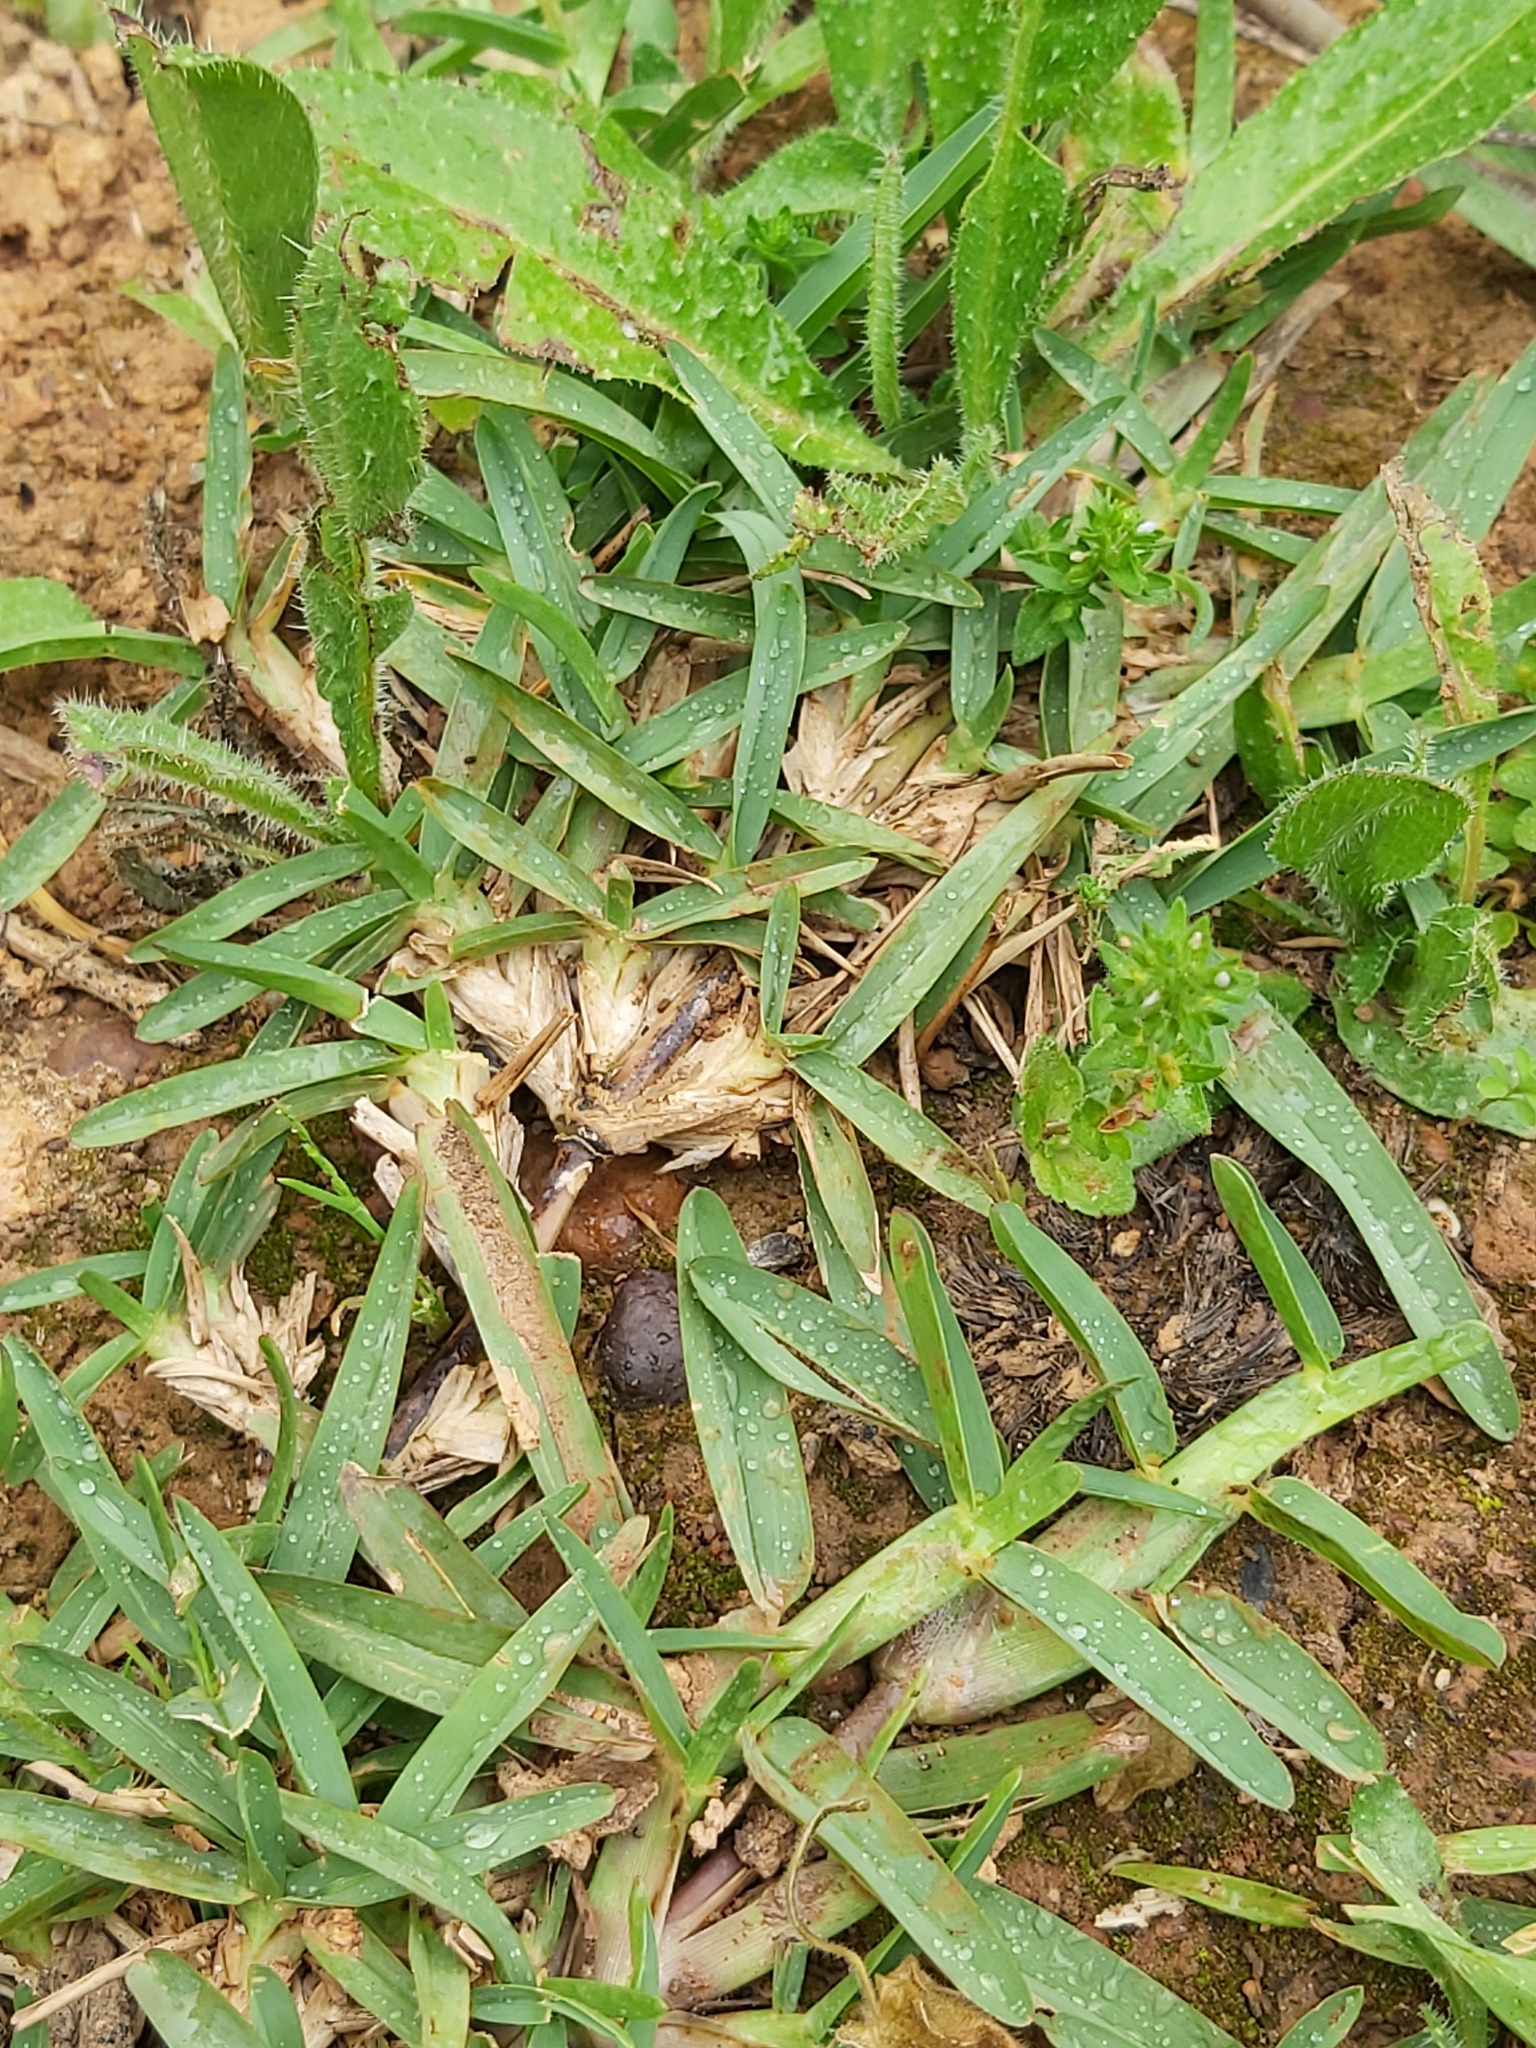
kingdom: Plantae
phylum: Tracheophyta
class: Liliopsida
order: Poales
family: Poaceae
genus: Stenotaphrum
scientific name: Stenotaphrum secundatum
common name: St. augustine grass
